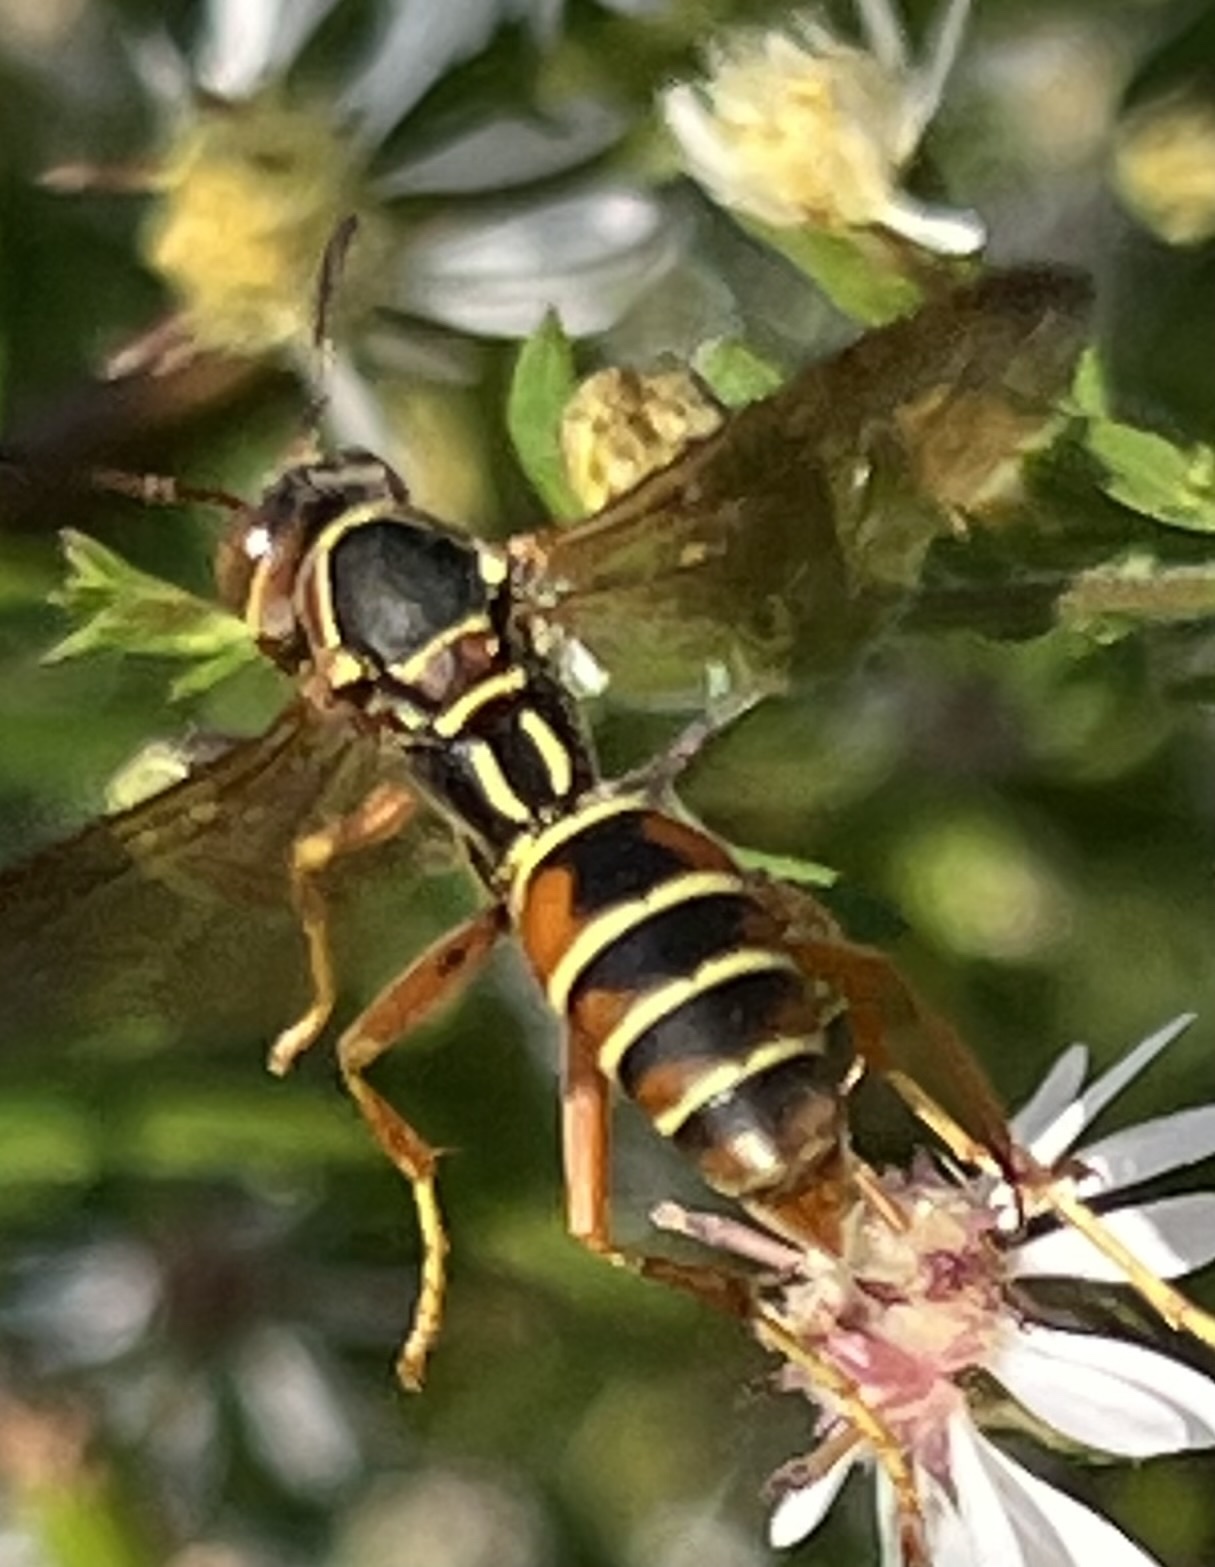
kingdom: Animalia
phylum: Arthropoda
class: Insecta
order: Hymenoptera
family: Eumenidae
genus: Polistes
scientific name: Polistes fuscatus
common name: Dark paper wasp
